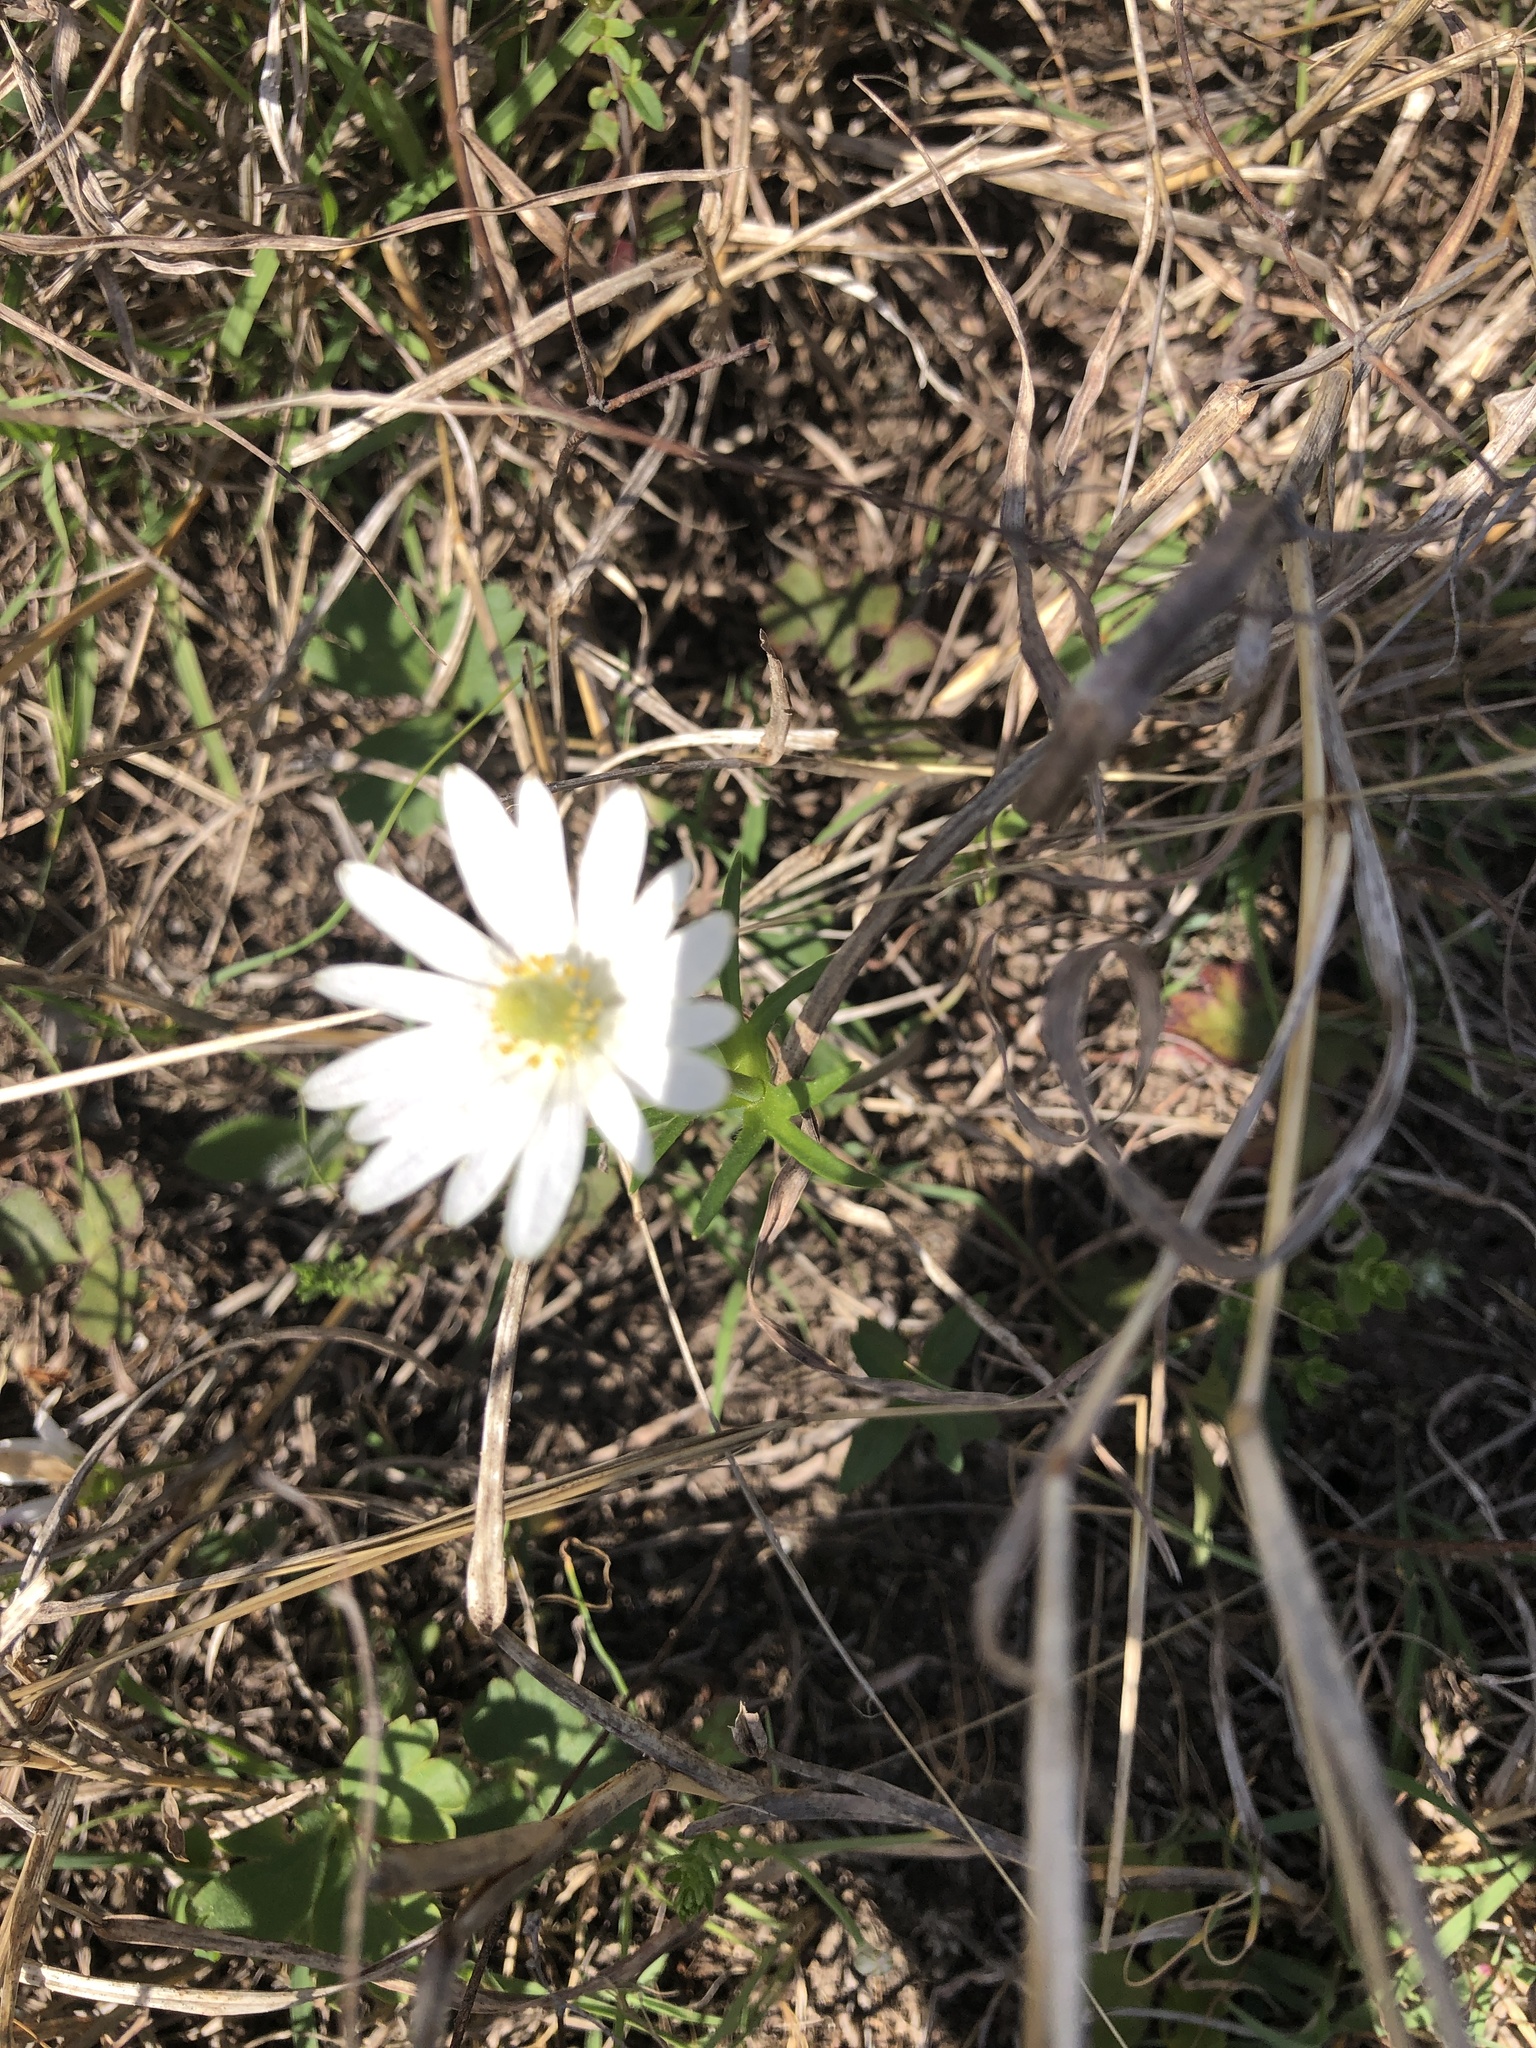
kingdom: Plantae
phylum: Tracheophyta
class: Magnoliopsida
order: Ranunculales
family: Ranunculaceae
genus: Anemone
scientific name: Anemone berlandieri
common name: Ten-petal anemone
